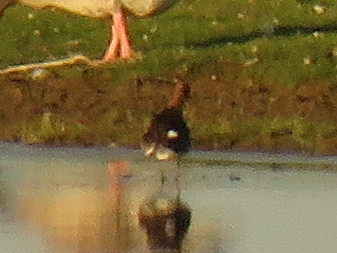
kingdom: Animalia
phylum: Chordata
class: Aves
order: Charadriiformes
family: Scolopacidae
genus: Limosa
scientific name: Limosa limosa
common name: Black-tailed godwit
